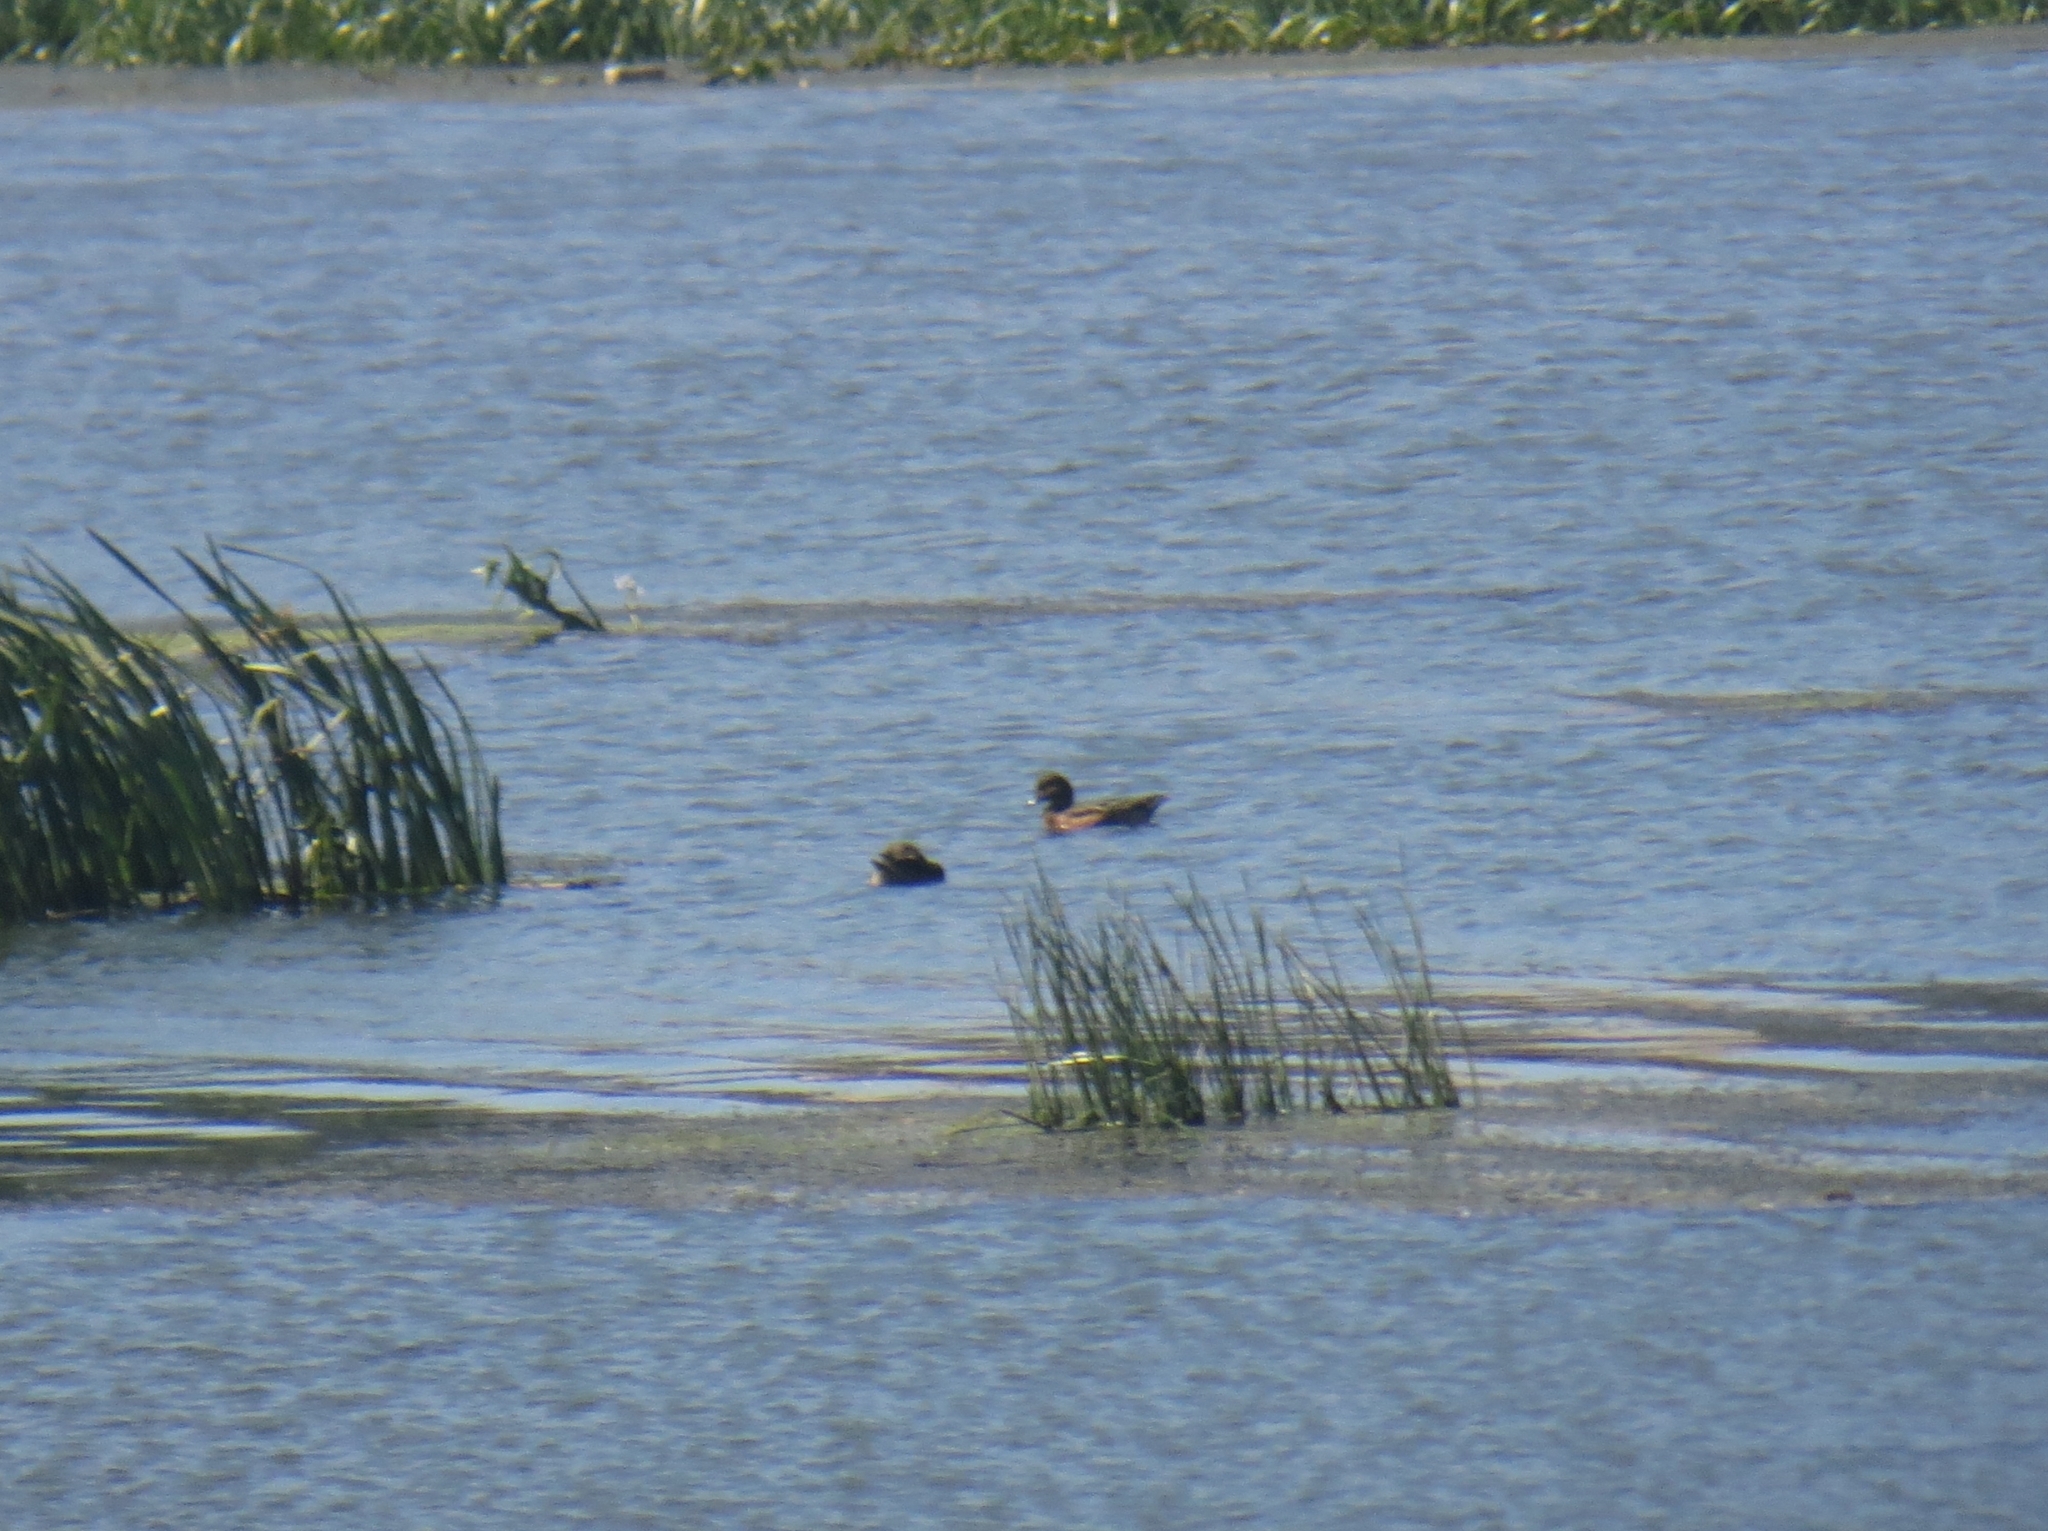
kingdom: Animalia
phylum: Chordata
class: Aves
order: Anseriformes
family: Anatidae
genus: Mareca
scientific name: Mareca penelope
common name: Eurasian wigeon
